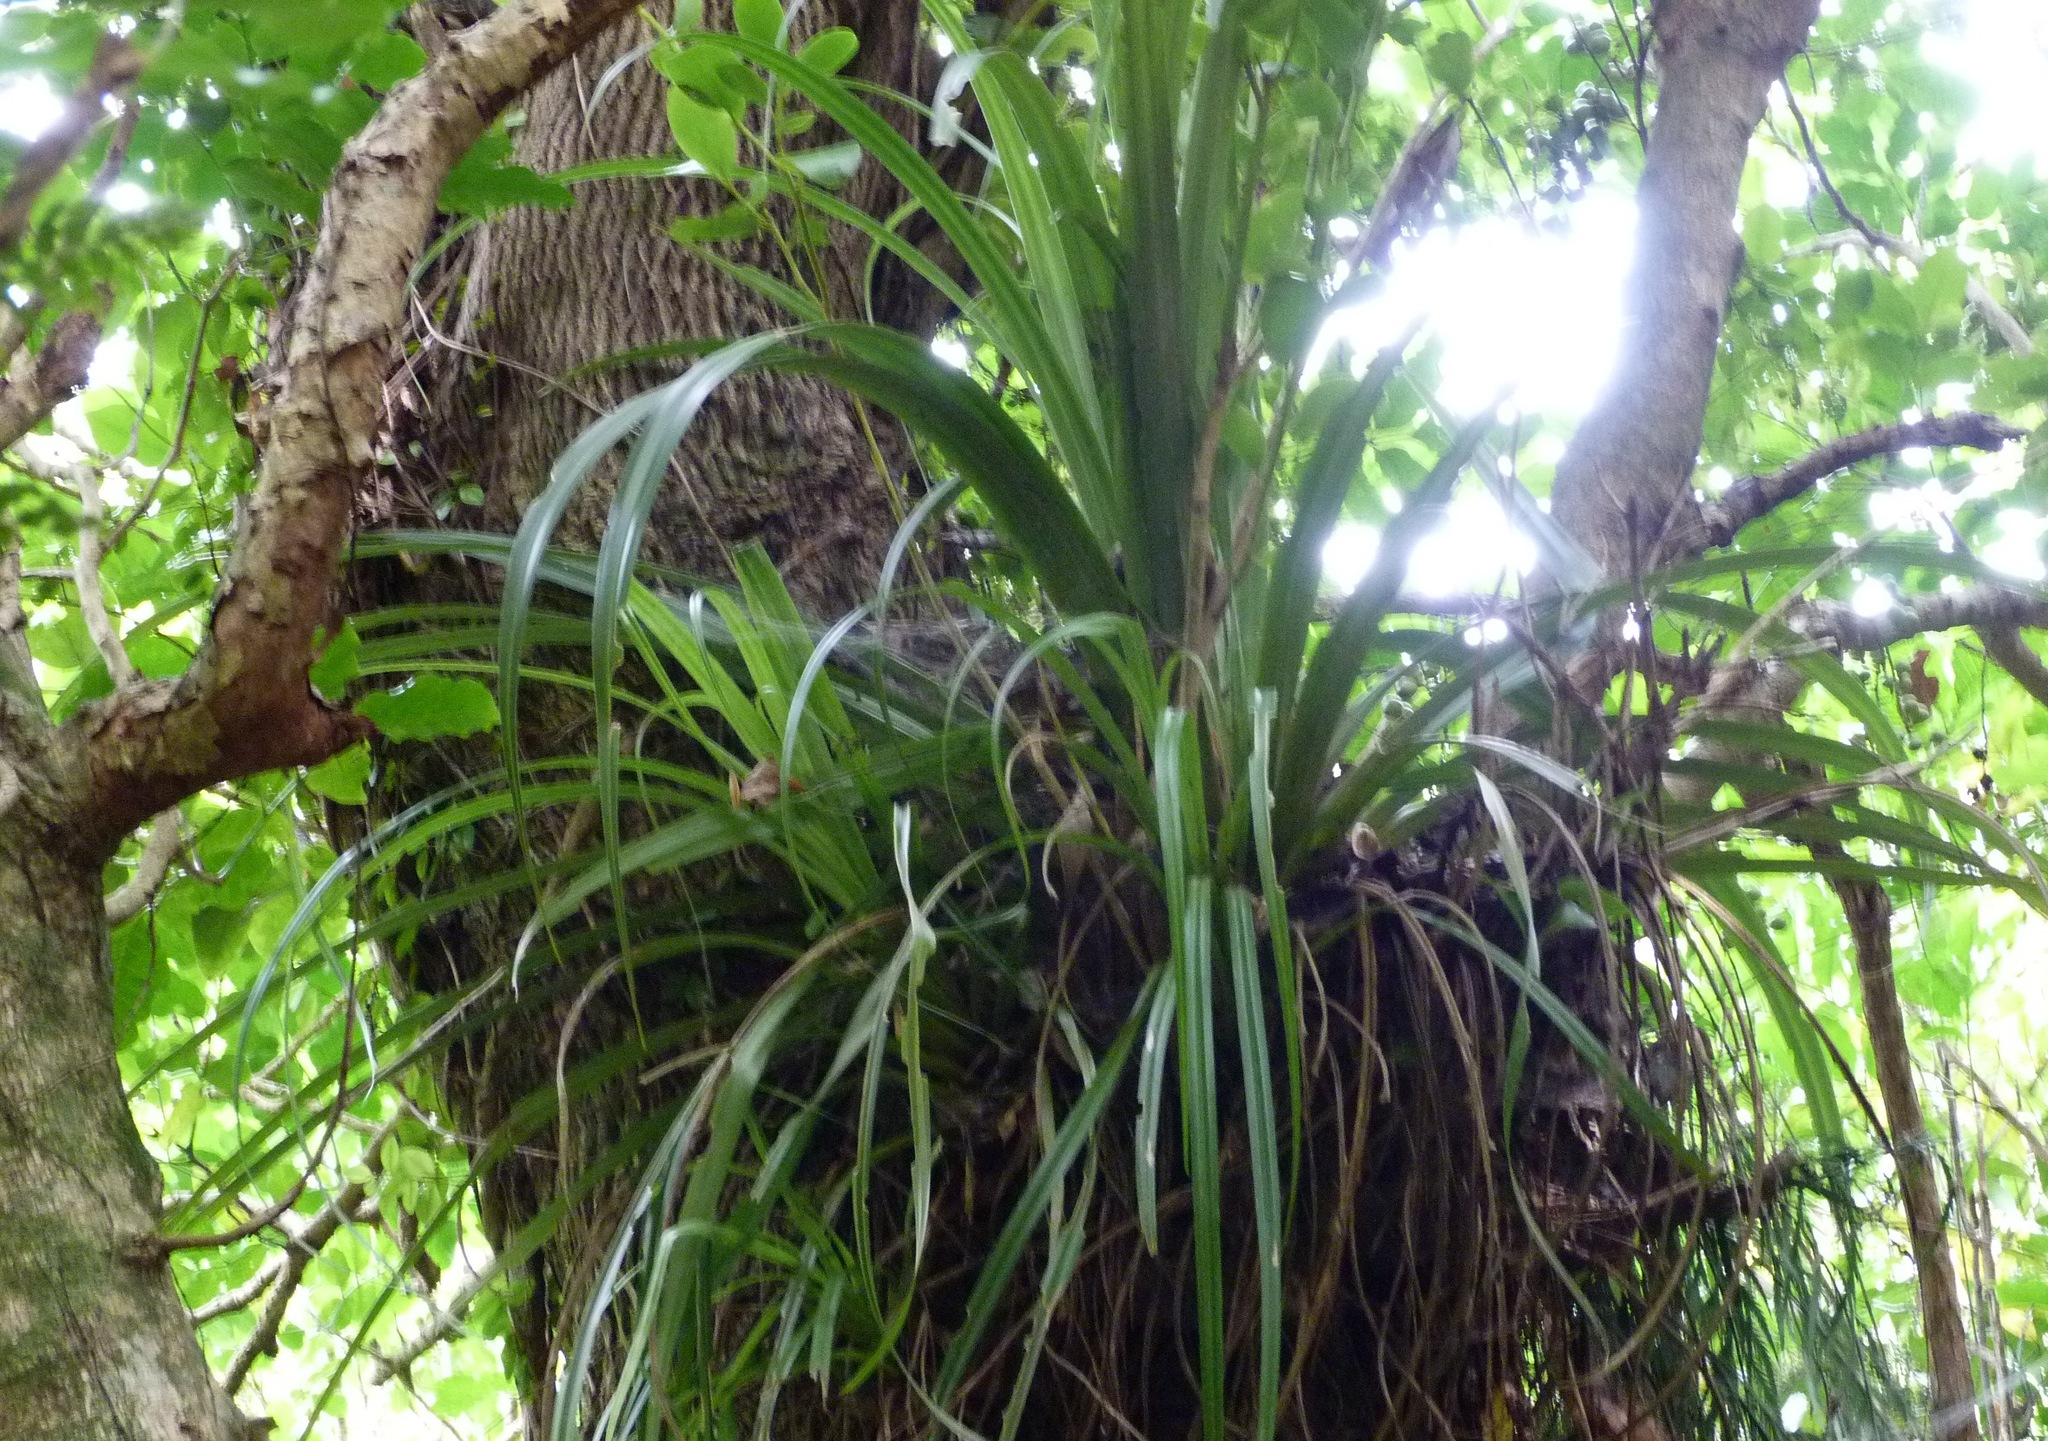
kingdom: Plantae
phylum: Tracheophyta
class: Liliopsida
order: Asparagales
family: Asteliaceae
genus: Astelia
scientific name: Astelia solandri
